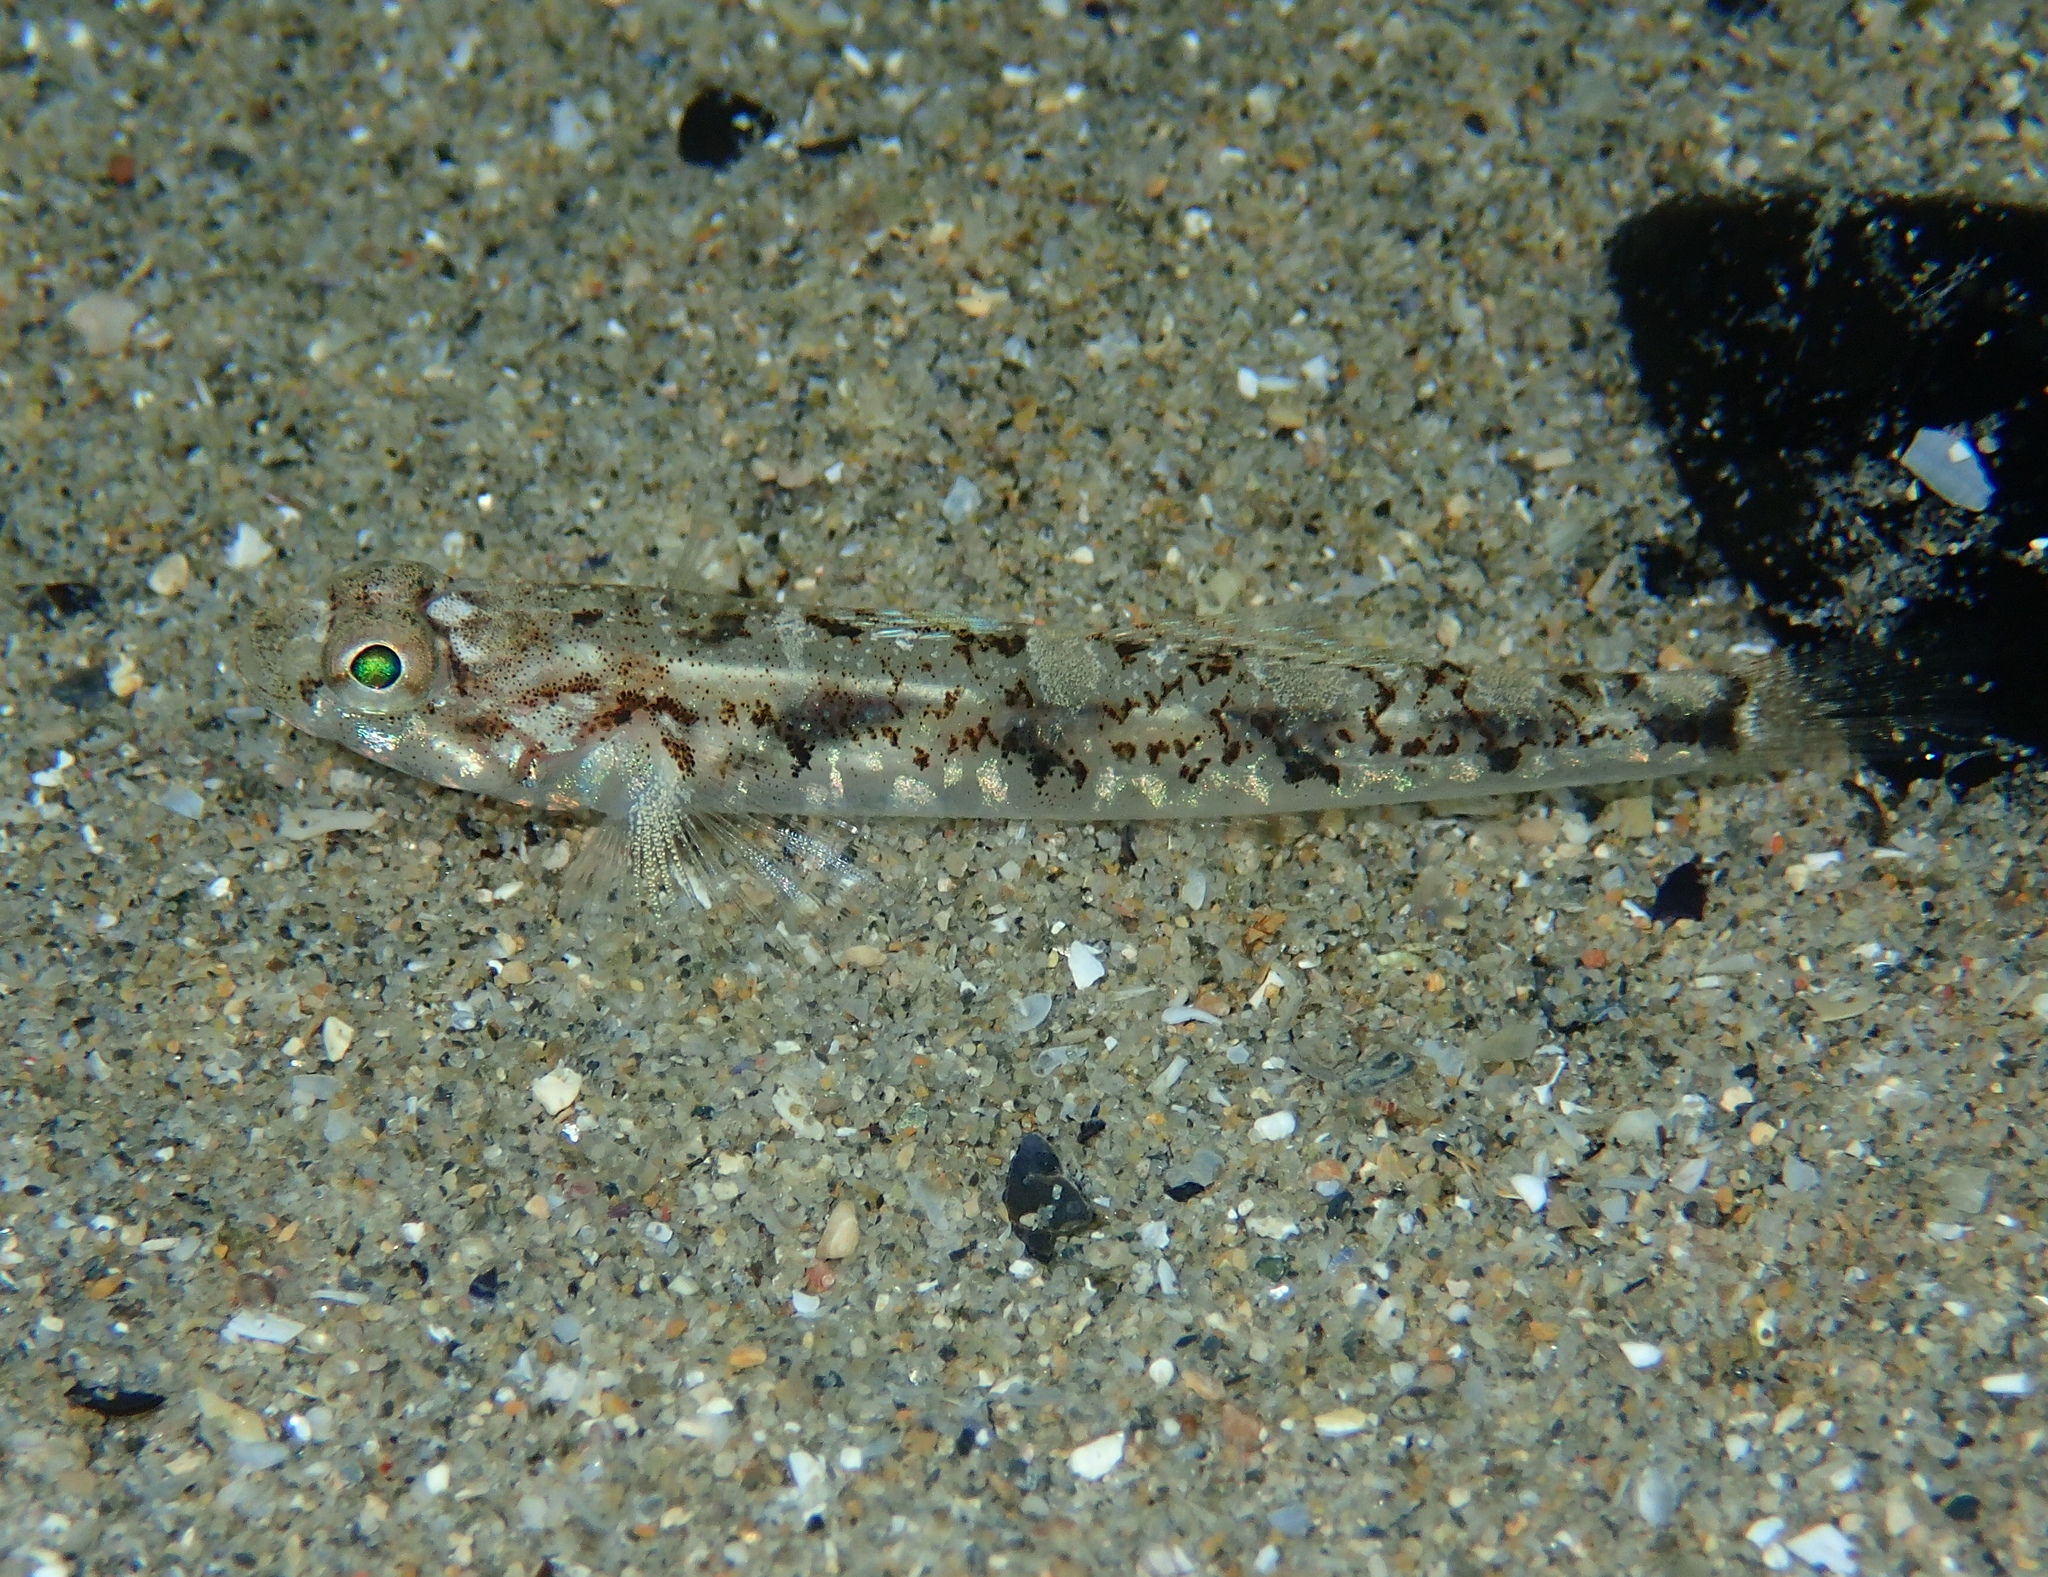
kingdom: Animalia
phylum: Chordata
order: Perciformes
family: Gobiidae
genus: Pomatoschistus
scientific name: Pomatoschistus pictus
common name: Painted goby
